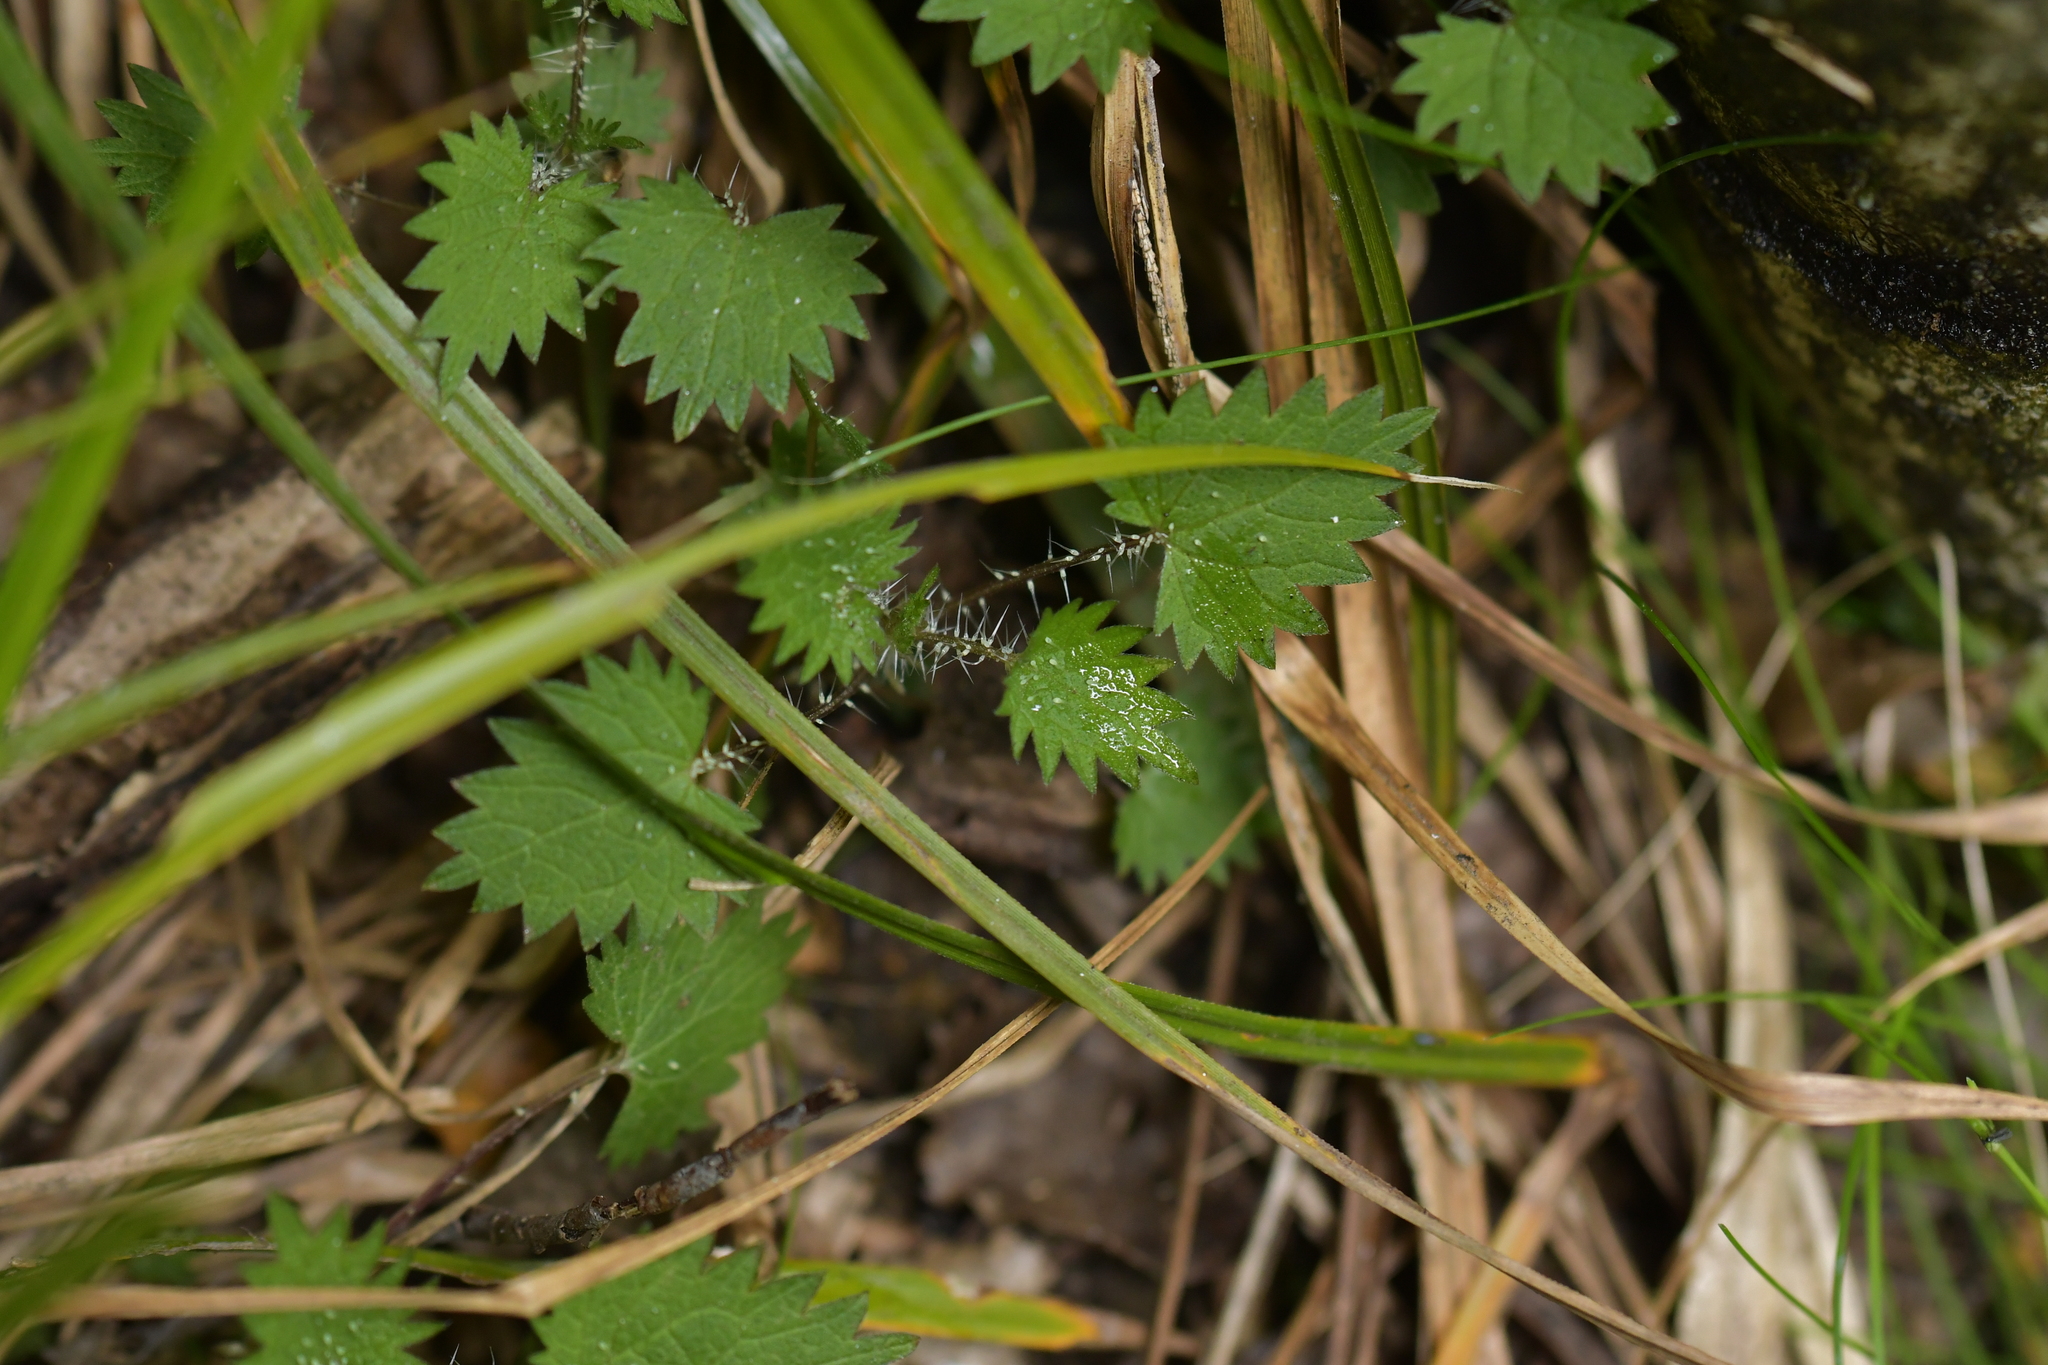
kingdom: Plantae
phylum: Tracheophyta
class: Magnoliopsida
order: Rosales
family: Urticaceae
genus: Urtica
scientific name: Urtica sykesii
